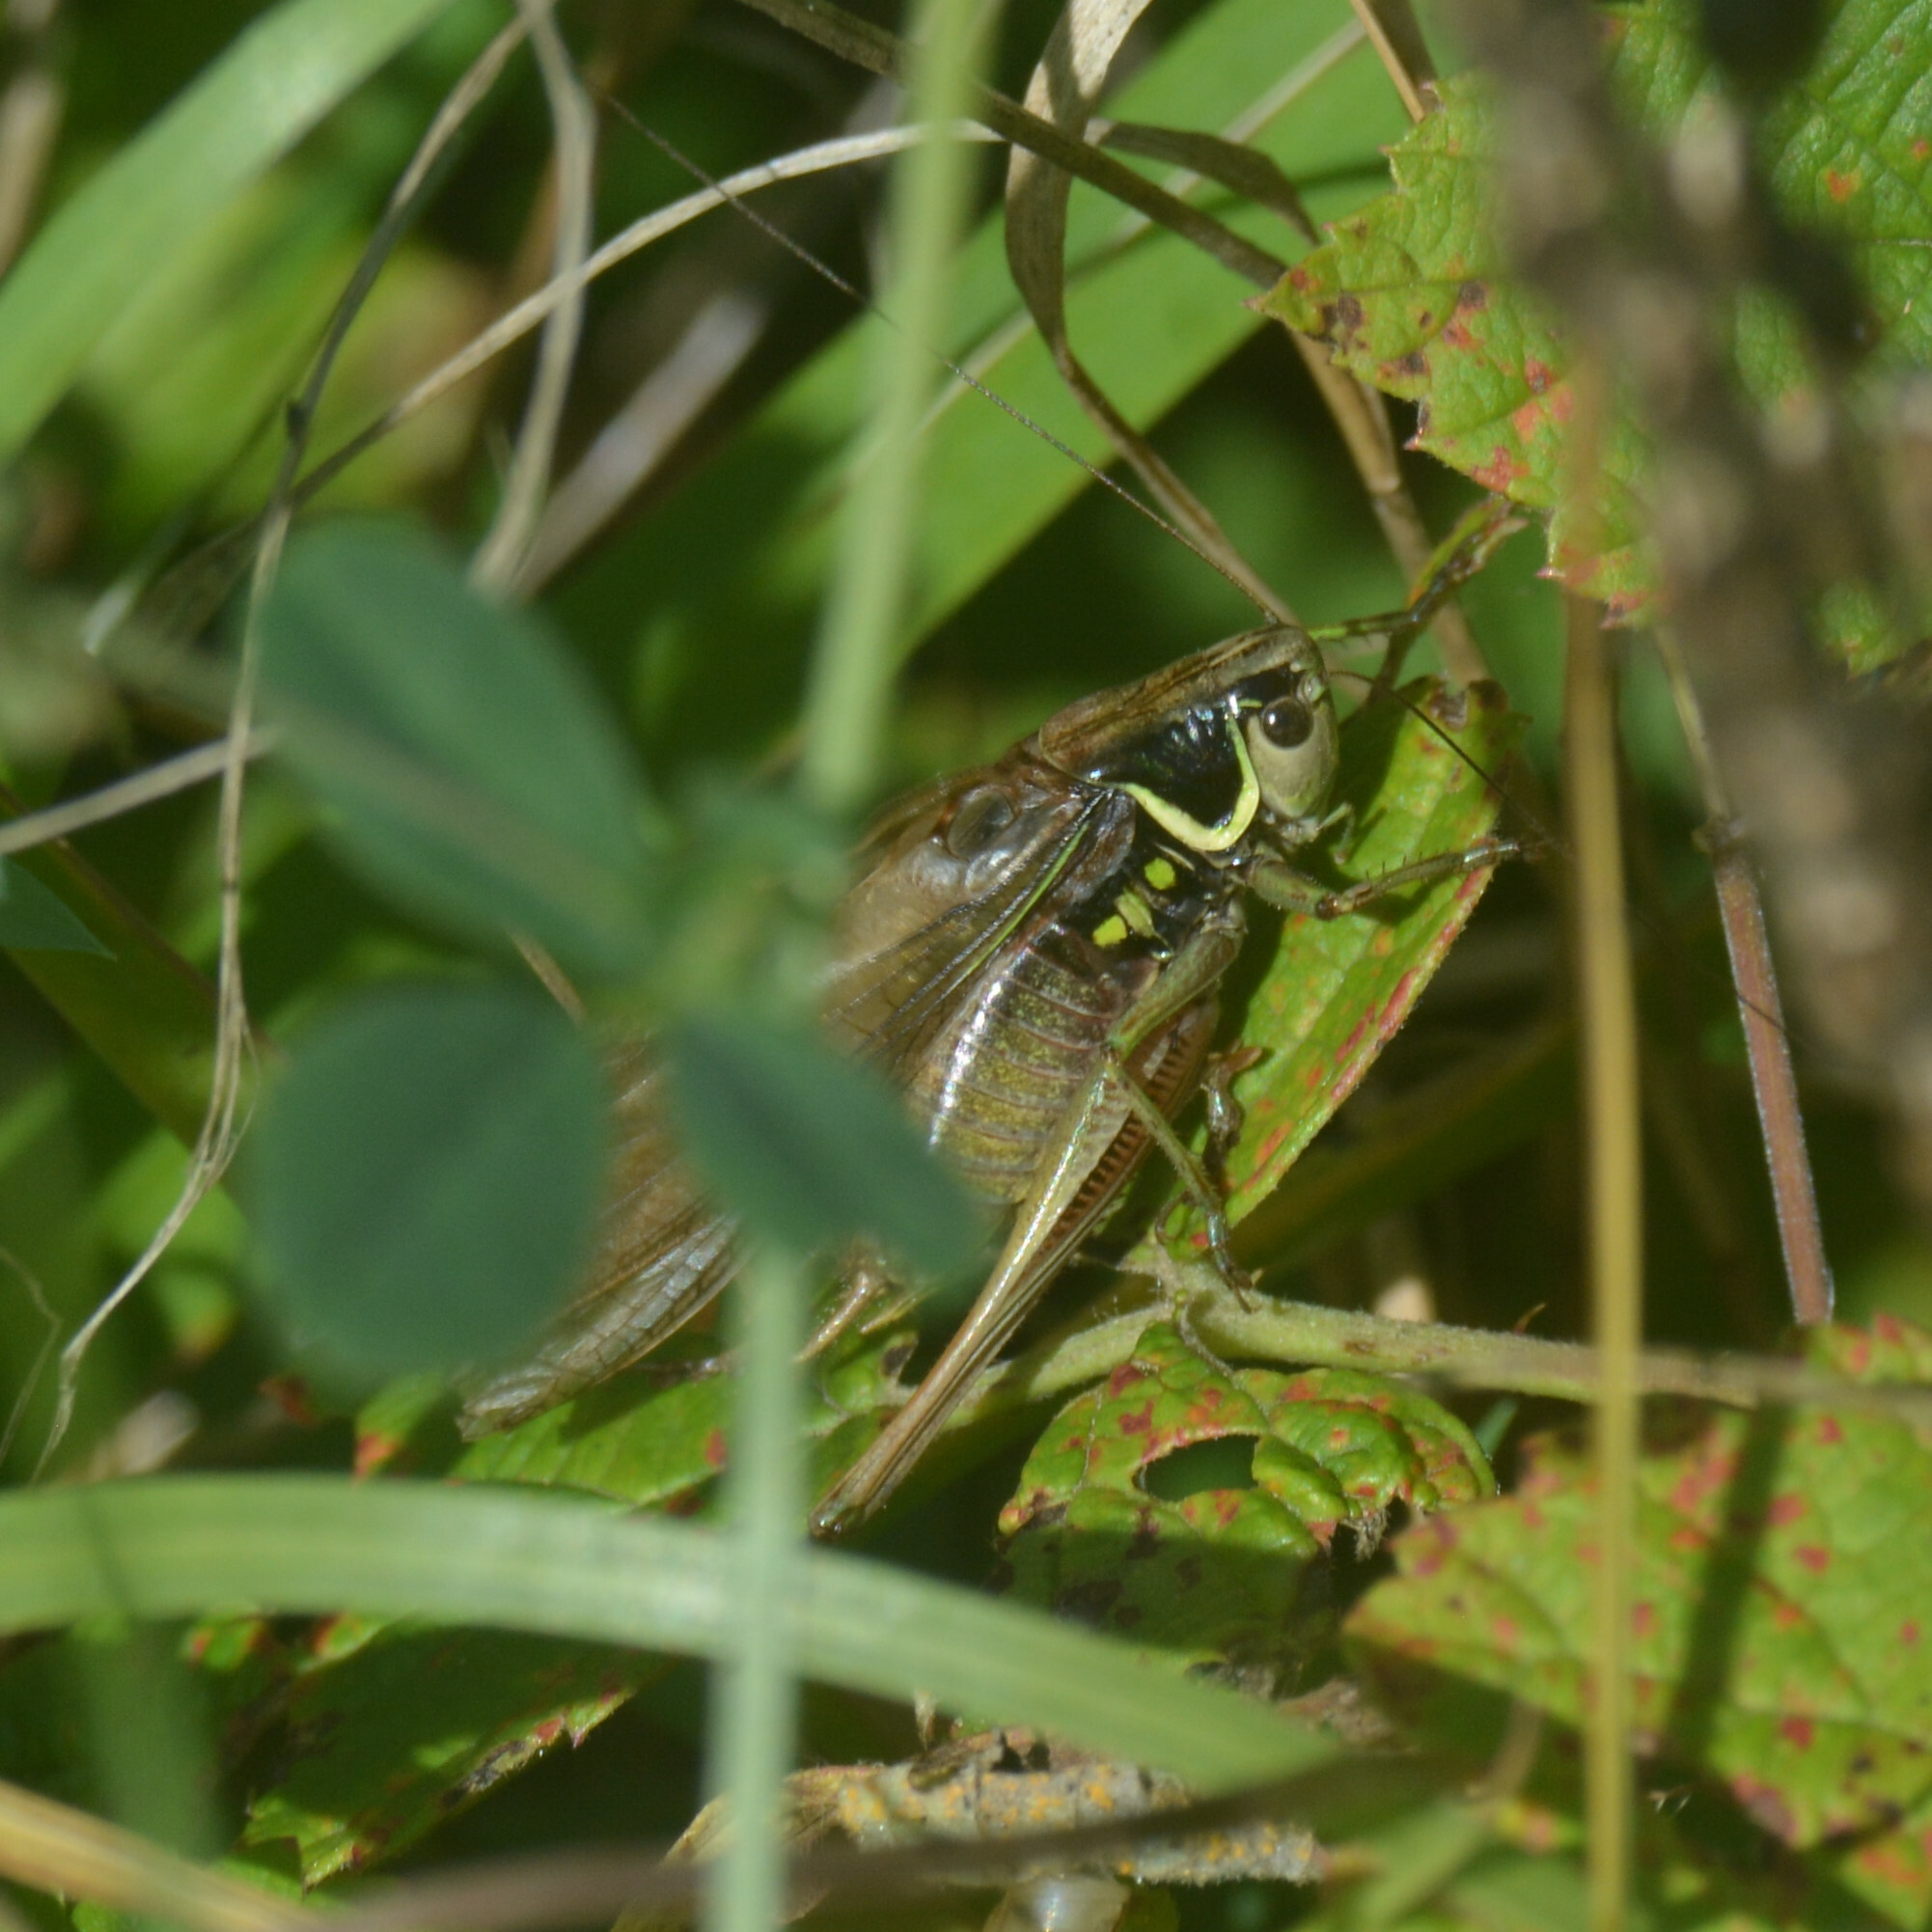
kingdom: Animalia
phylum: Arthropoda
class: Insecta
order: Orthoptera
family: Tettigoniidae
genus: Roeseliana
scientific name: Roeseliana roeselii
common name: Roesel's bush cricket
